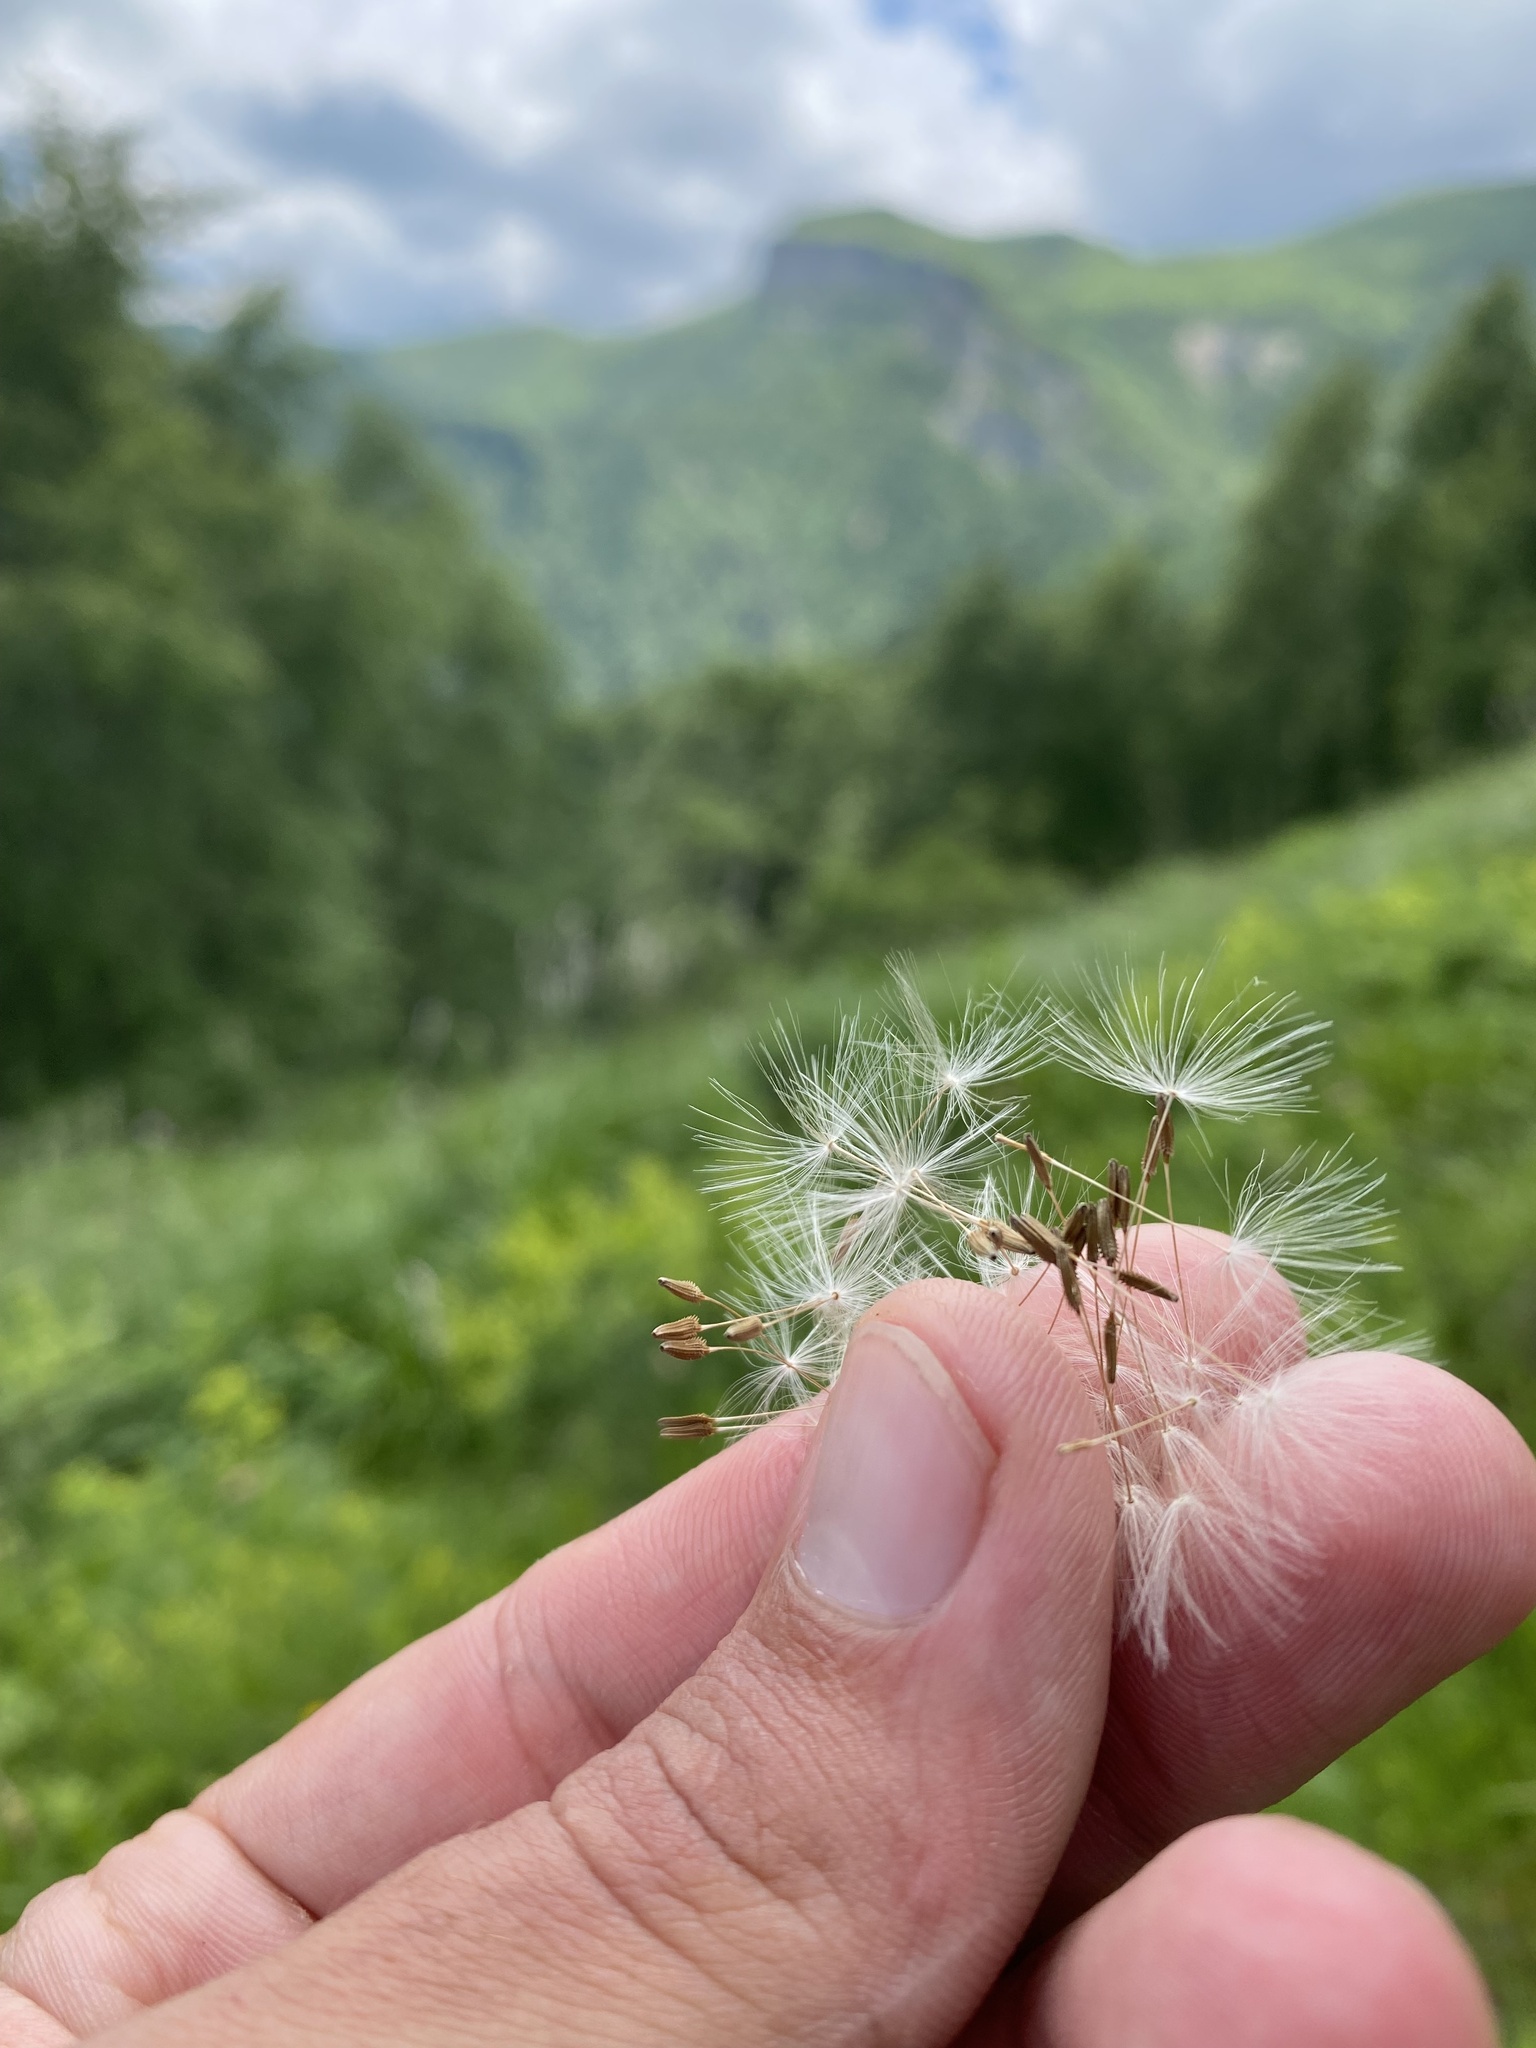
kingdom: Plantae
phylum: Tracheophyta
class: Magnoliopsida
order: Asterales
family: Asteraceae
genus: Taraxacum
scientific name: Taraxacum officinale
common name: Common dandelion
